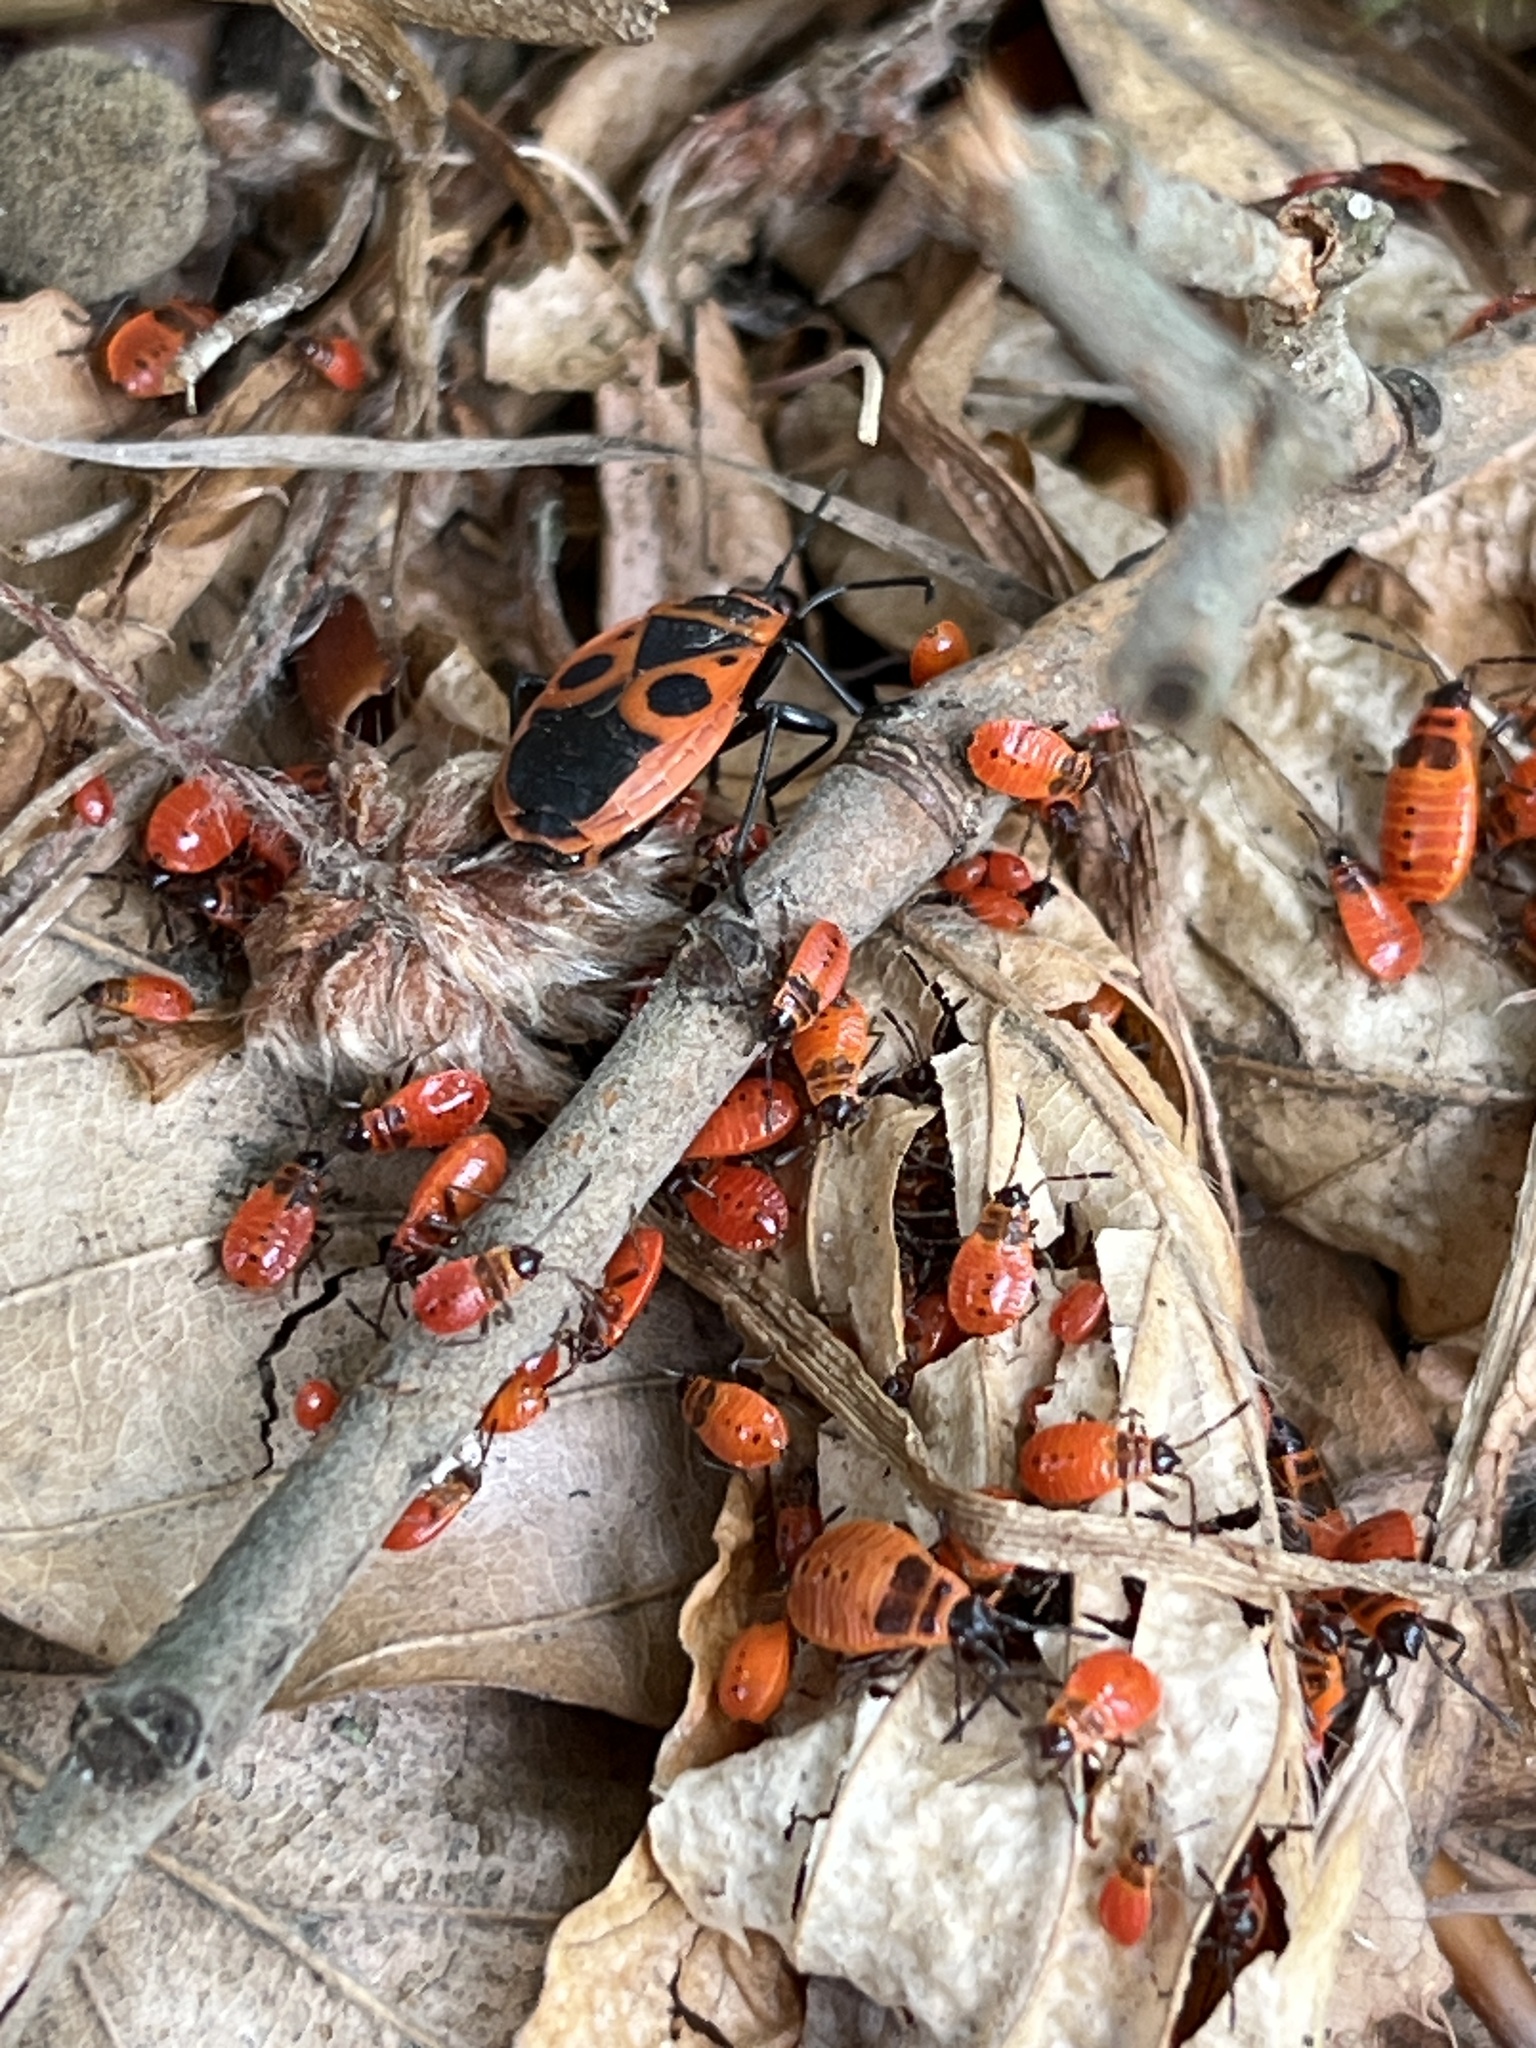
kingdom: Animalia
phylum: Arthropoda
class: Insecta
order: Hemiptera
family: Pyrrhocoridae
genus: Pyrrhocoris
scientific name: Pyrrhocoris apterus
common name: Firebug
